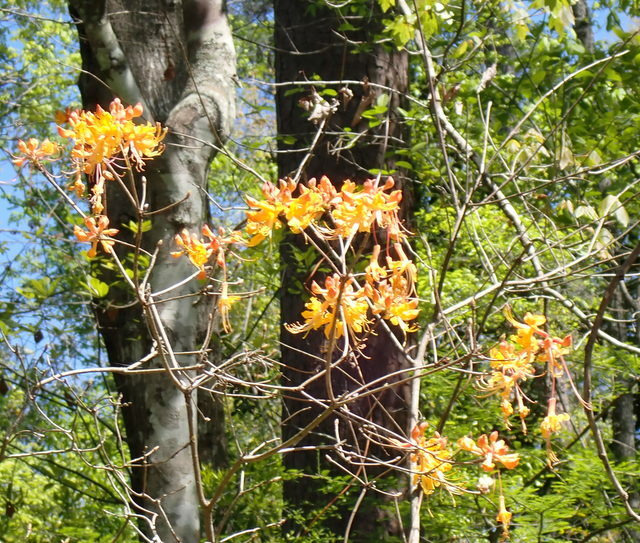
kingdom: Plantae
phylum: Tracheophyta
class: Magnoliopsida
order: Ericales
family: Ericaceae
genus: Rhododendron
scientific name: Rhododendron austrinum
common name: Florida azalea
